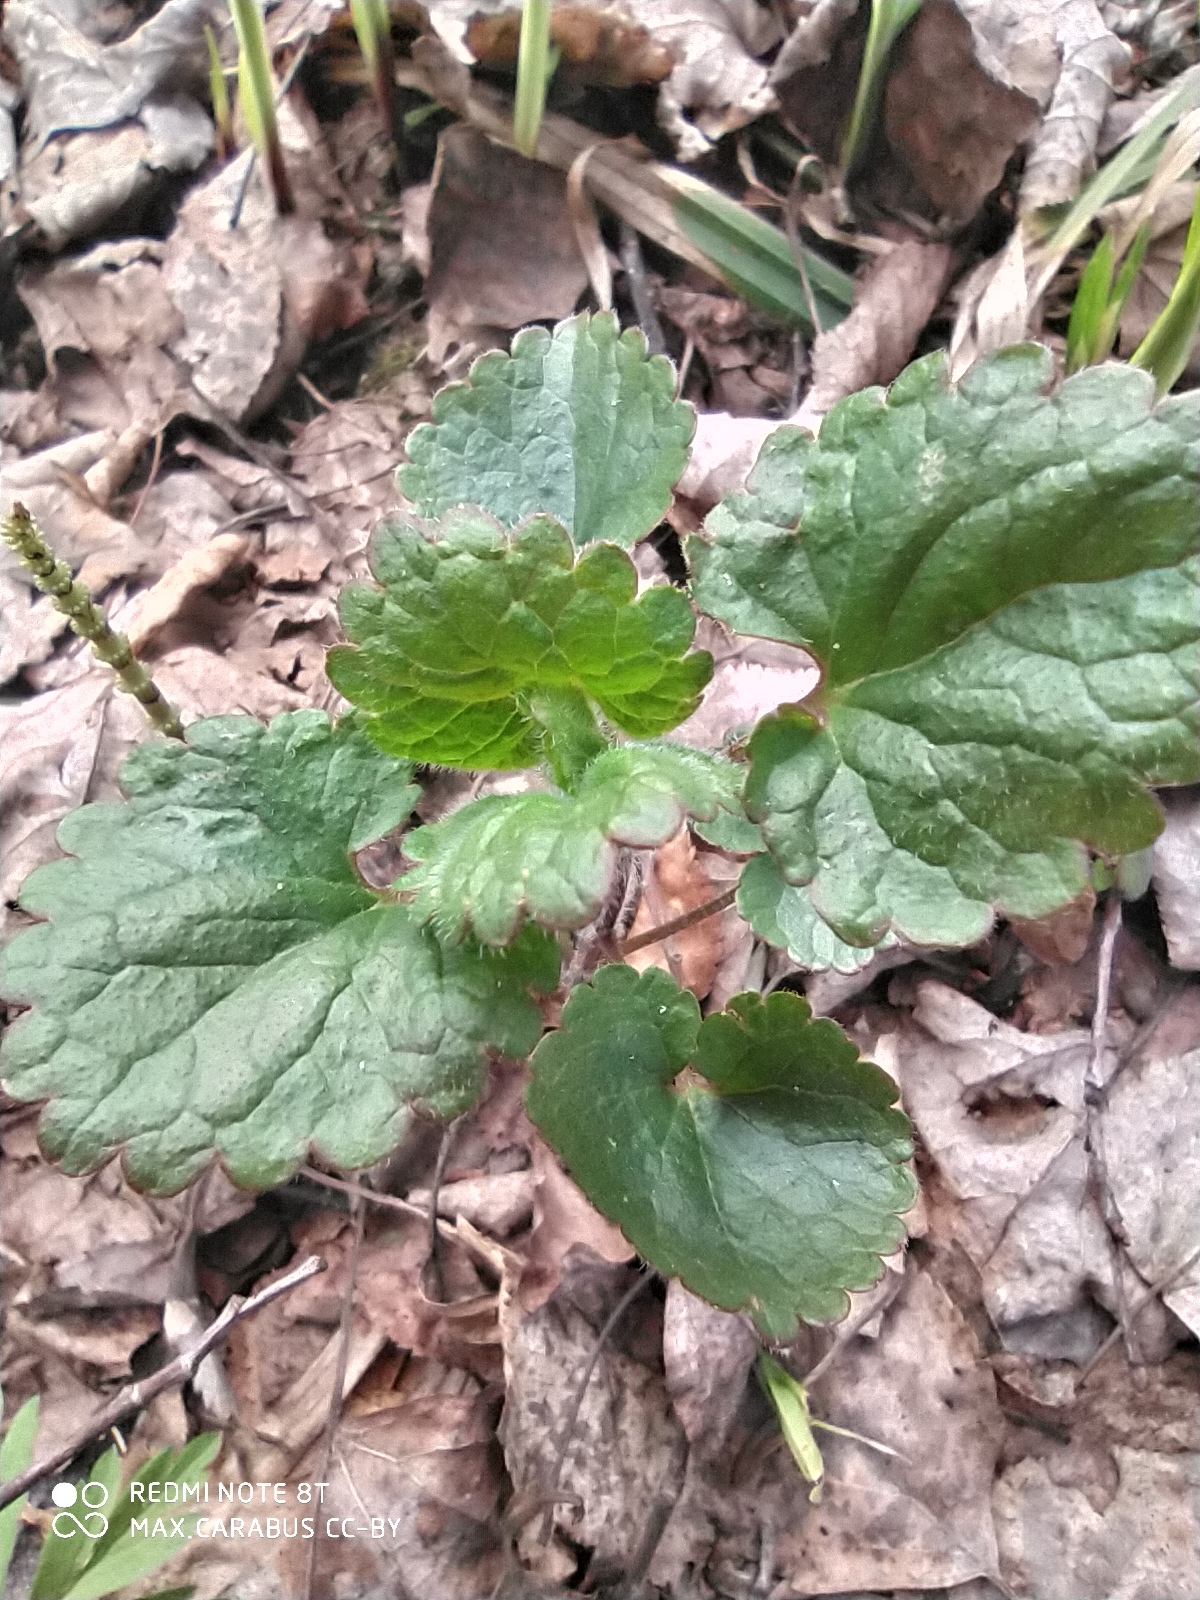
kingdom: Plantae
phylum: Tracheophyta
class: Magnoliopsida
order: Lamiales
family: Lamiaceae
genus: Glechoma
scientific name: Glechoma hederacea
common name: Ground ivy
